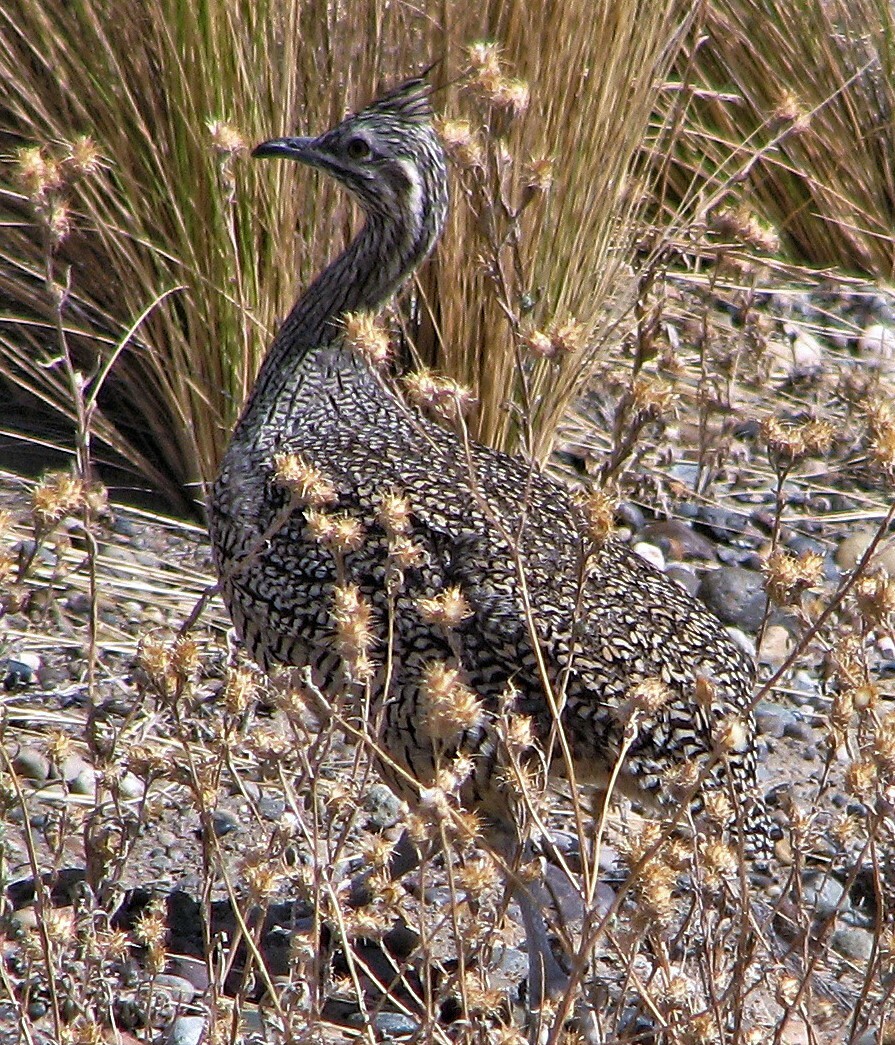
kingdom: Animalia
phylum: Chordata
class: Aves
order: Tinamiformes
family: Tinamidae
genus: Eudromia
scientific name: Eudromia elegans
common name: Elegant crested tinamou
